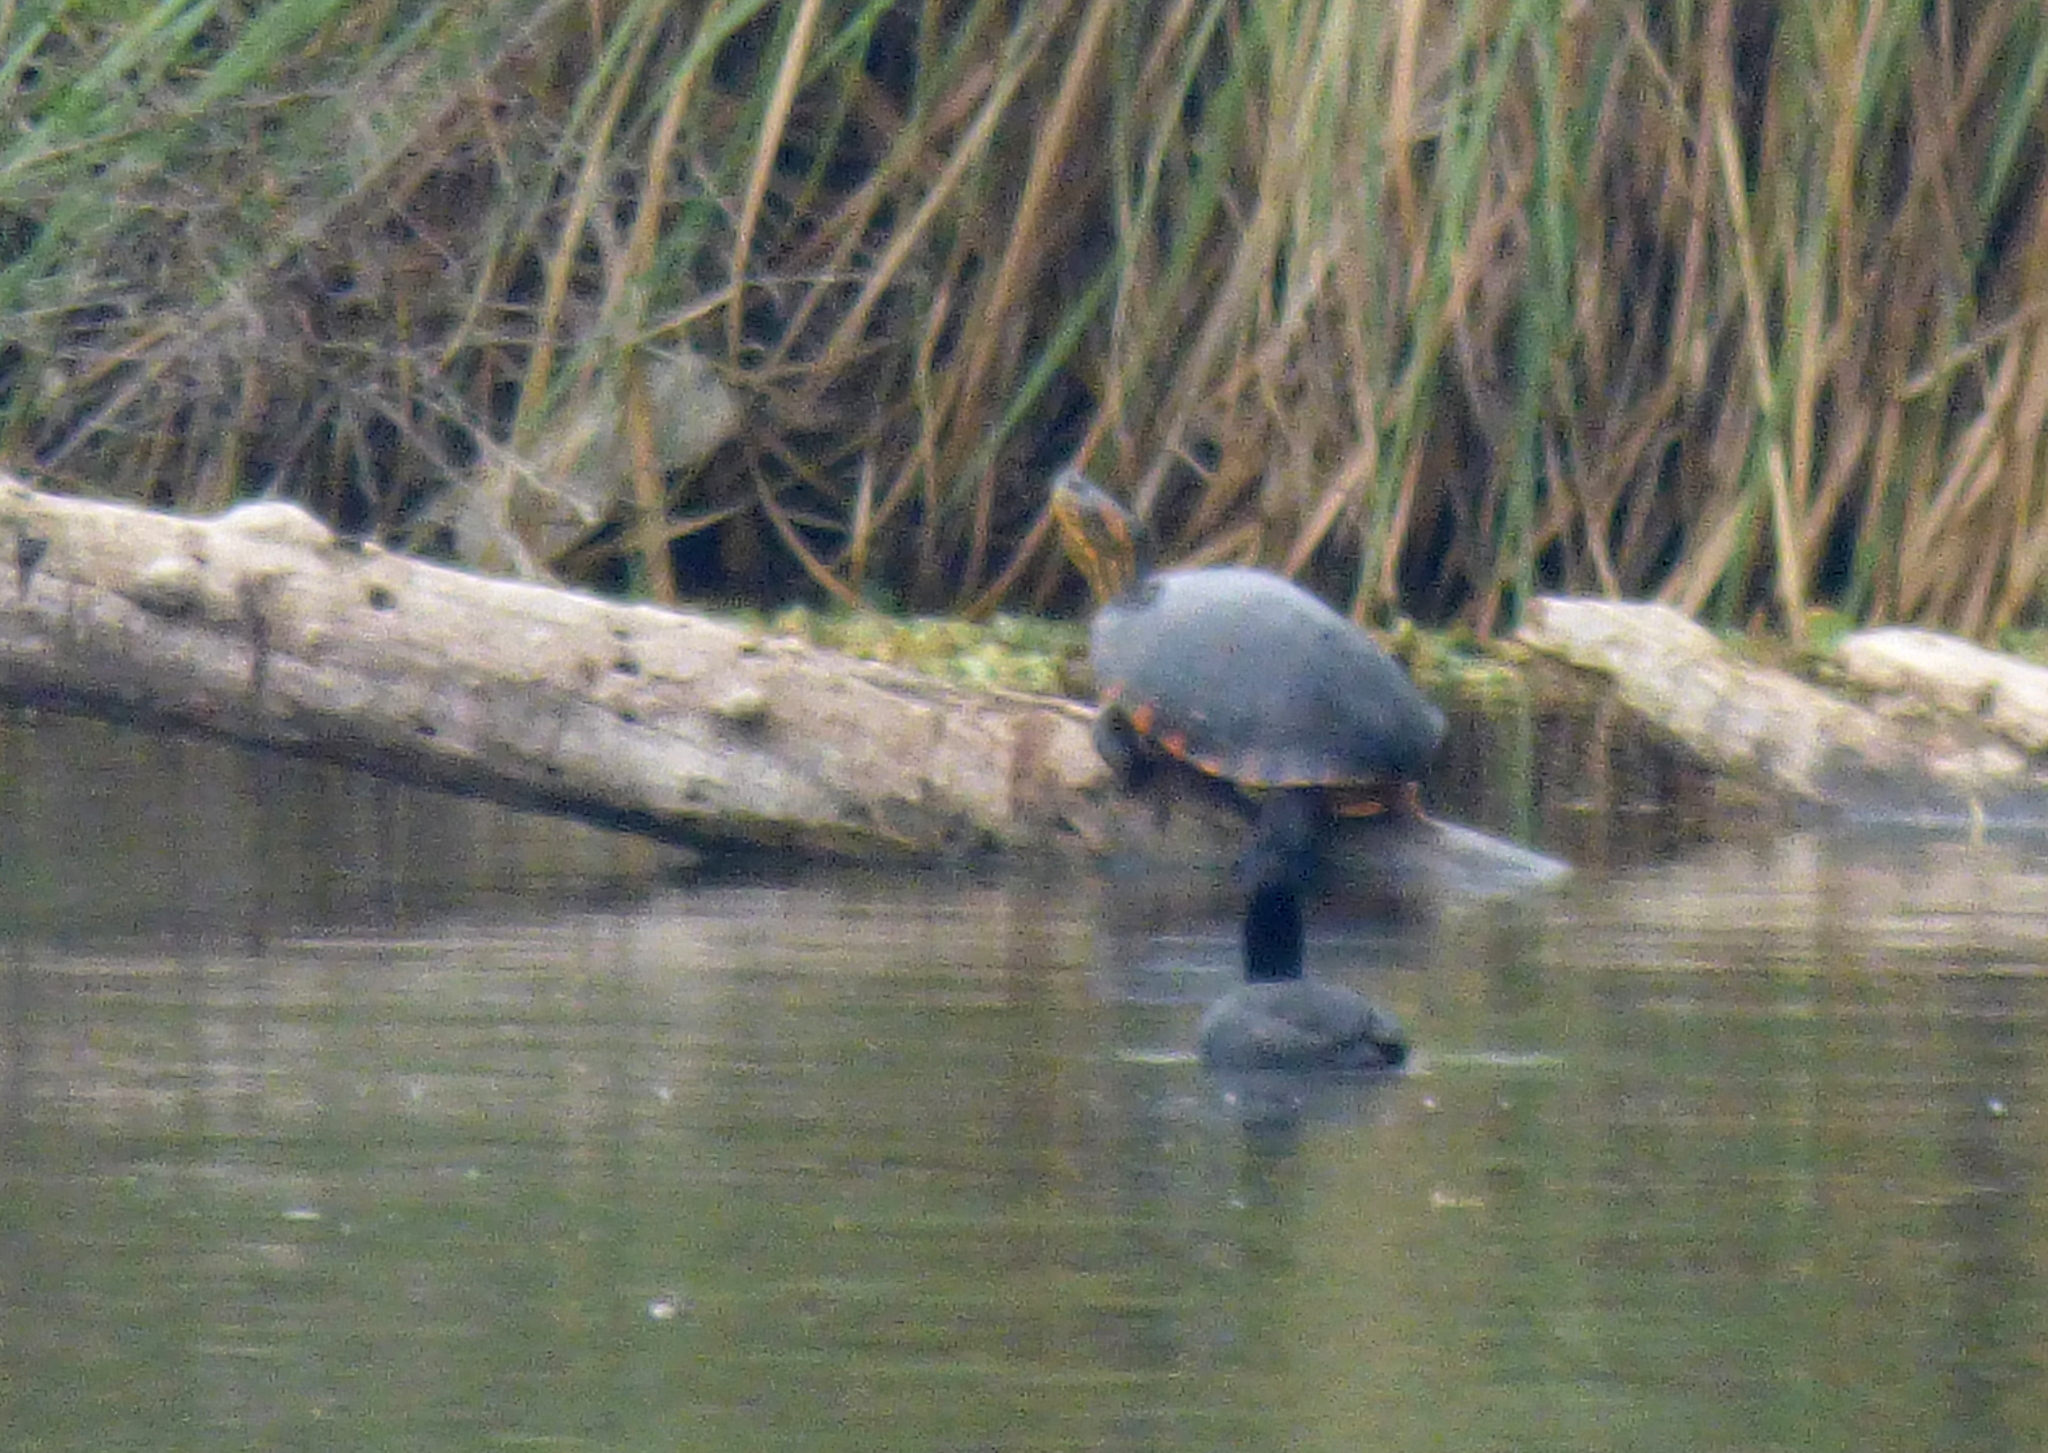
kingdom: Animalia
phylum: Chordata
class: Testudines
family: Emydidae
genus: Trachemys
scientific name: Trachemys dorbigni
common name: Black-bellied slider
